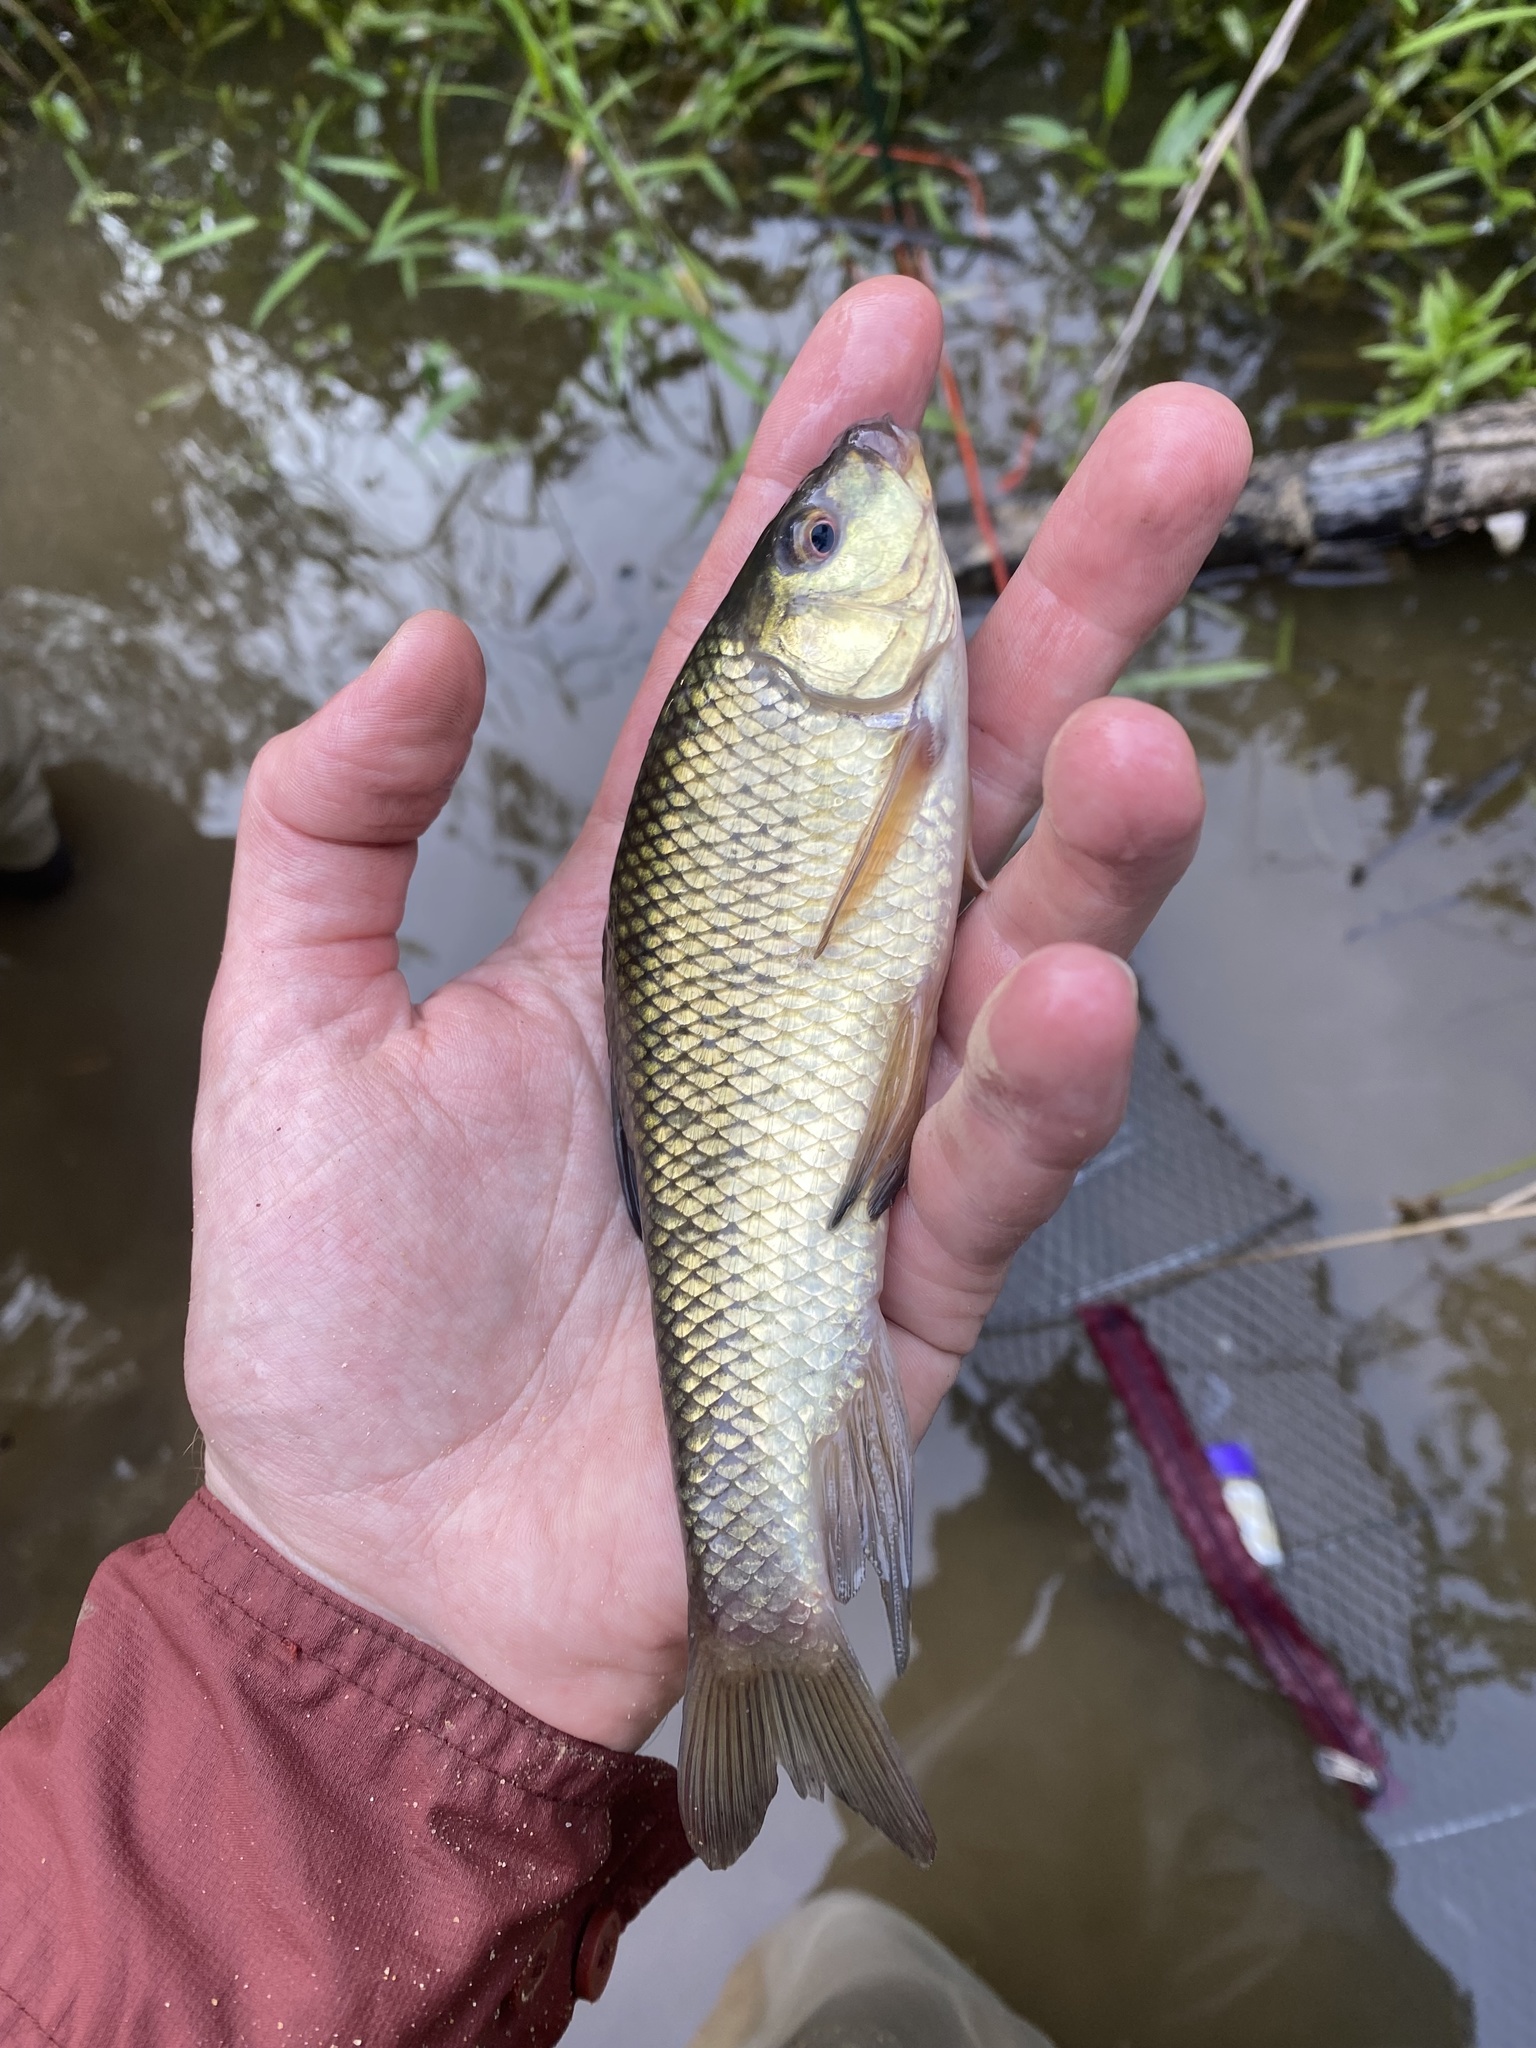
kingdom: Animalia
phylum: Chordata
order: Cypriniformes
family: Catostomidae
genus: Erimyzon
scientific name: Erimyzon sucetta
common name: Lake chubsucker
